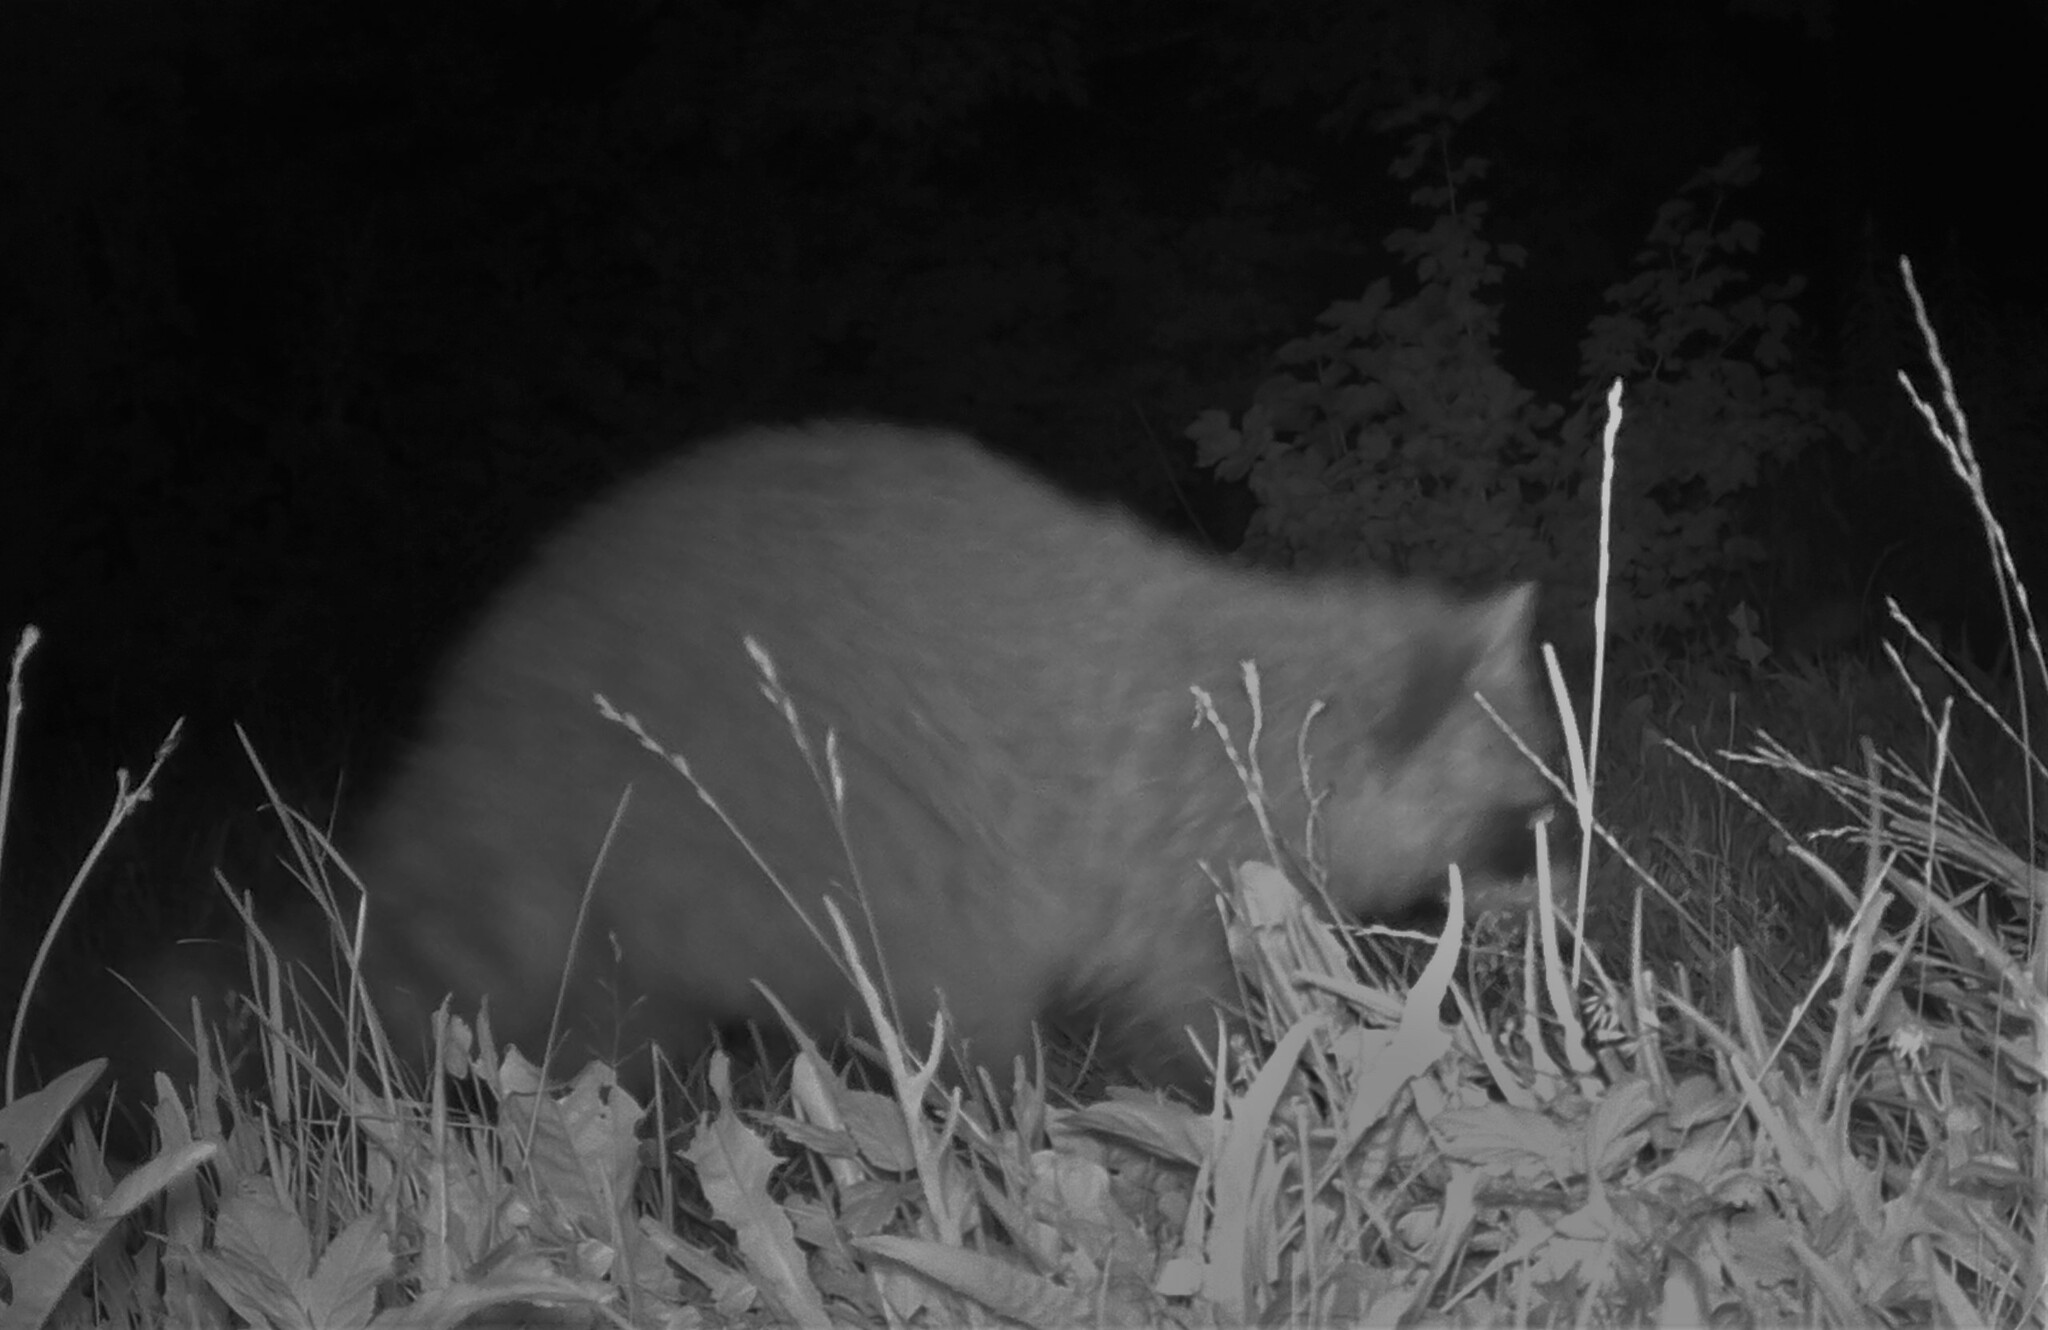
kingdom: Animalia
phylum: Chordata
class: Mammalia
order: Carnivora
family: Procyonidae
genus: Procyon
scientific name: Procyon lotor
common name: Raccoon
